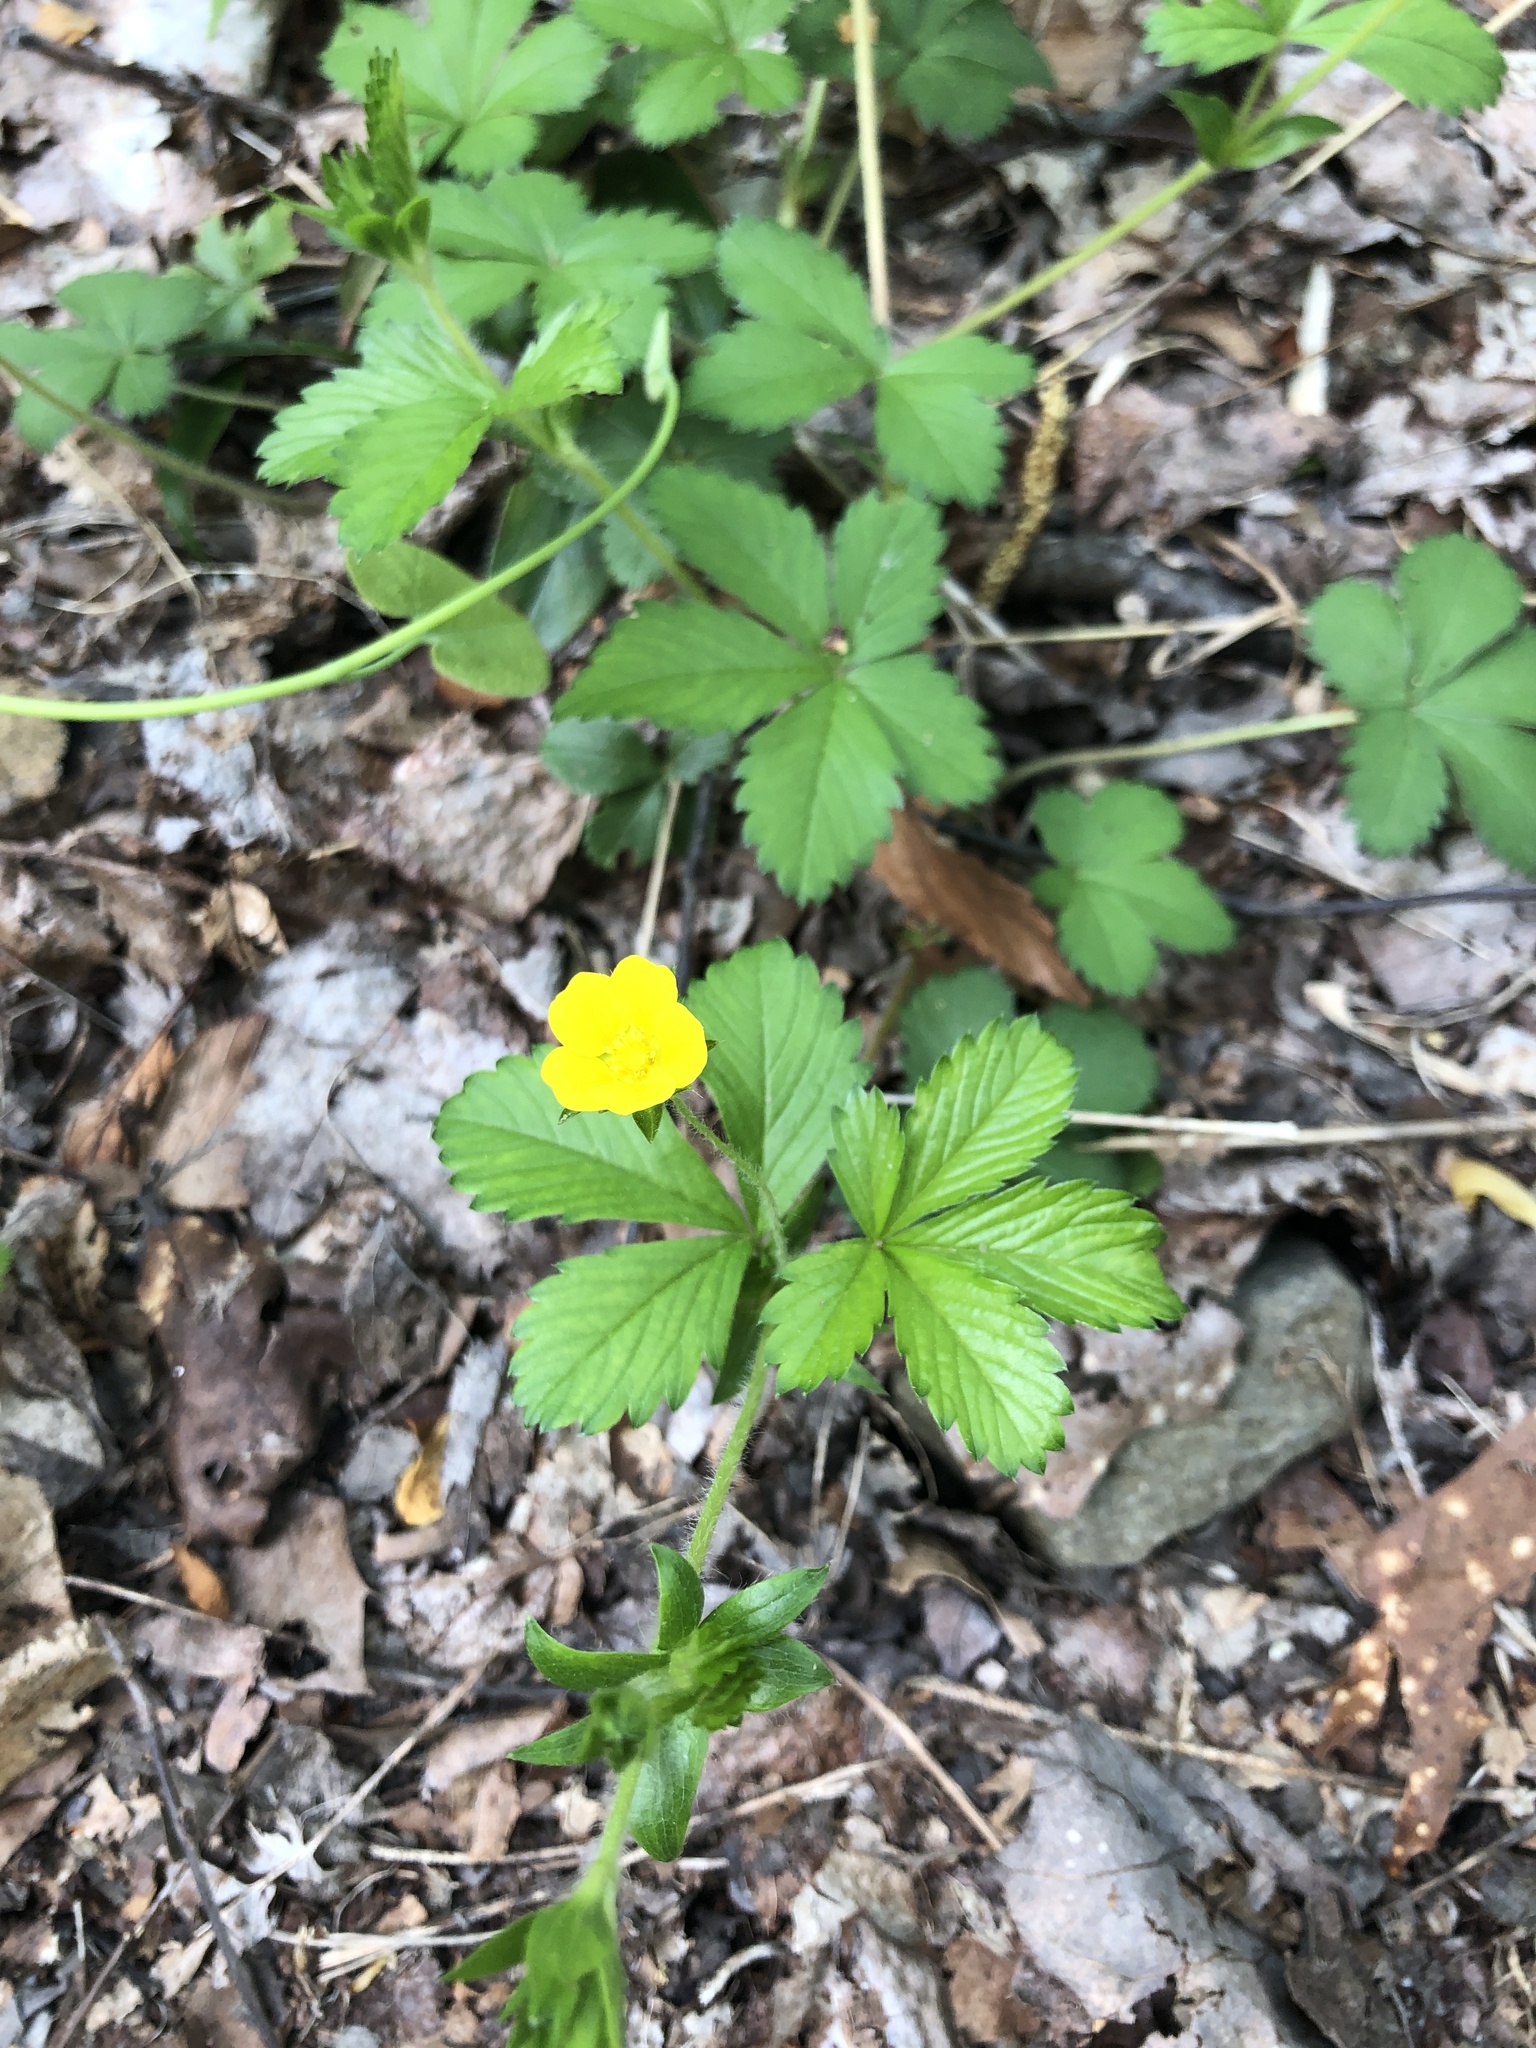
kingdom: Plantae
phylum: Tracheophyta
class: Magnoliopsida
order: Rosales
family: Rosaceae
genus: Potentilla
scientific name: Potentilla simplex
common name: Old field cinquefoil
